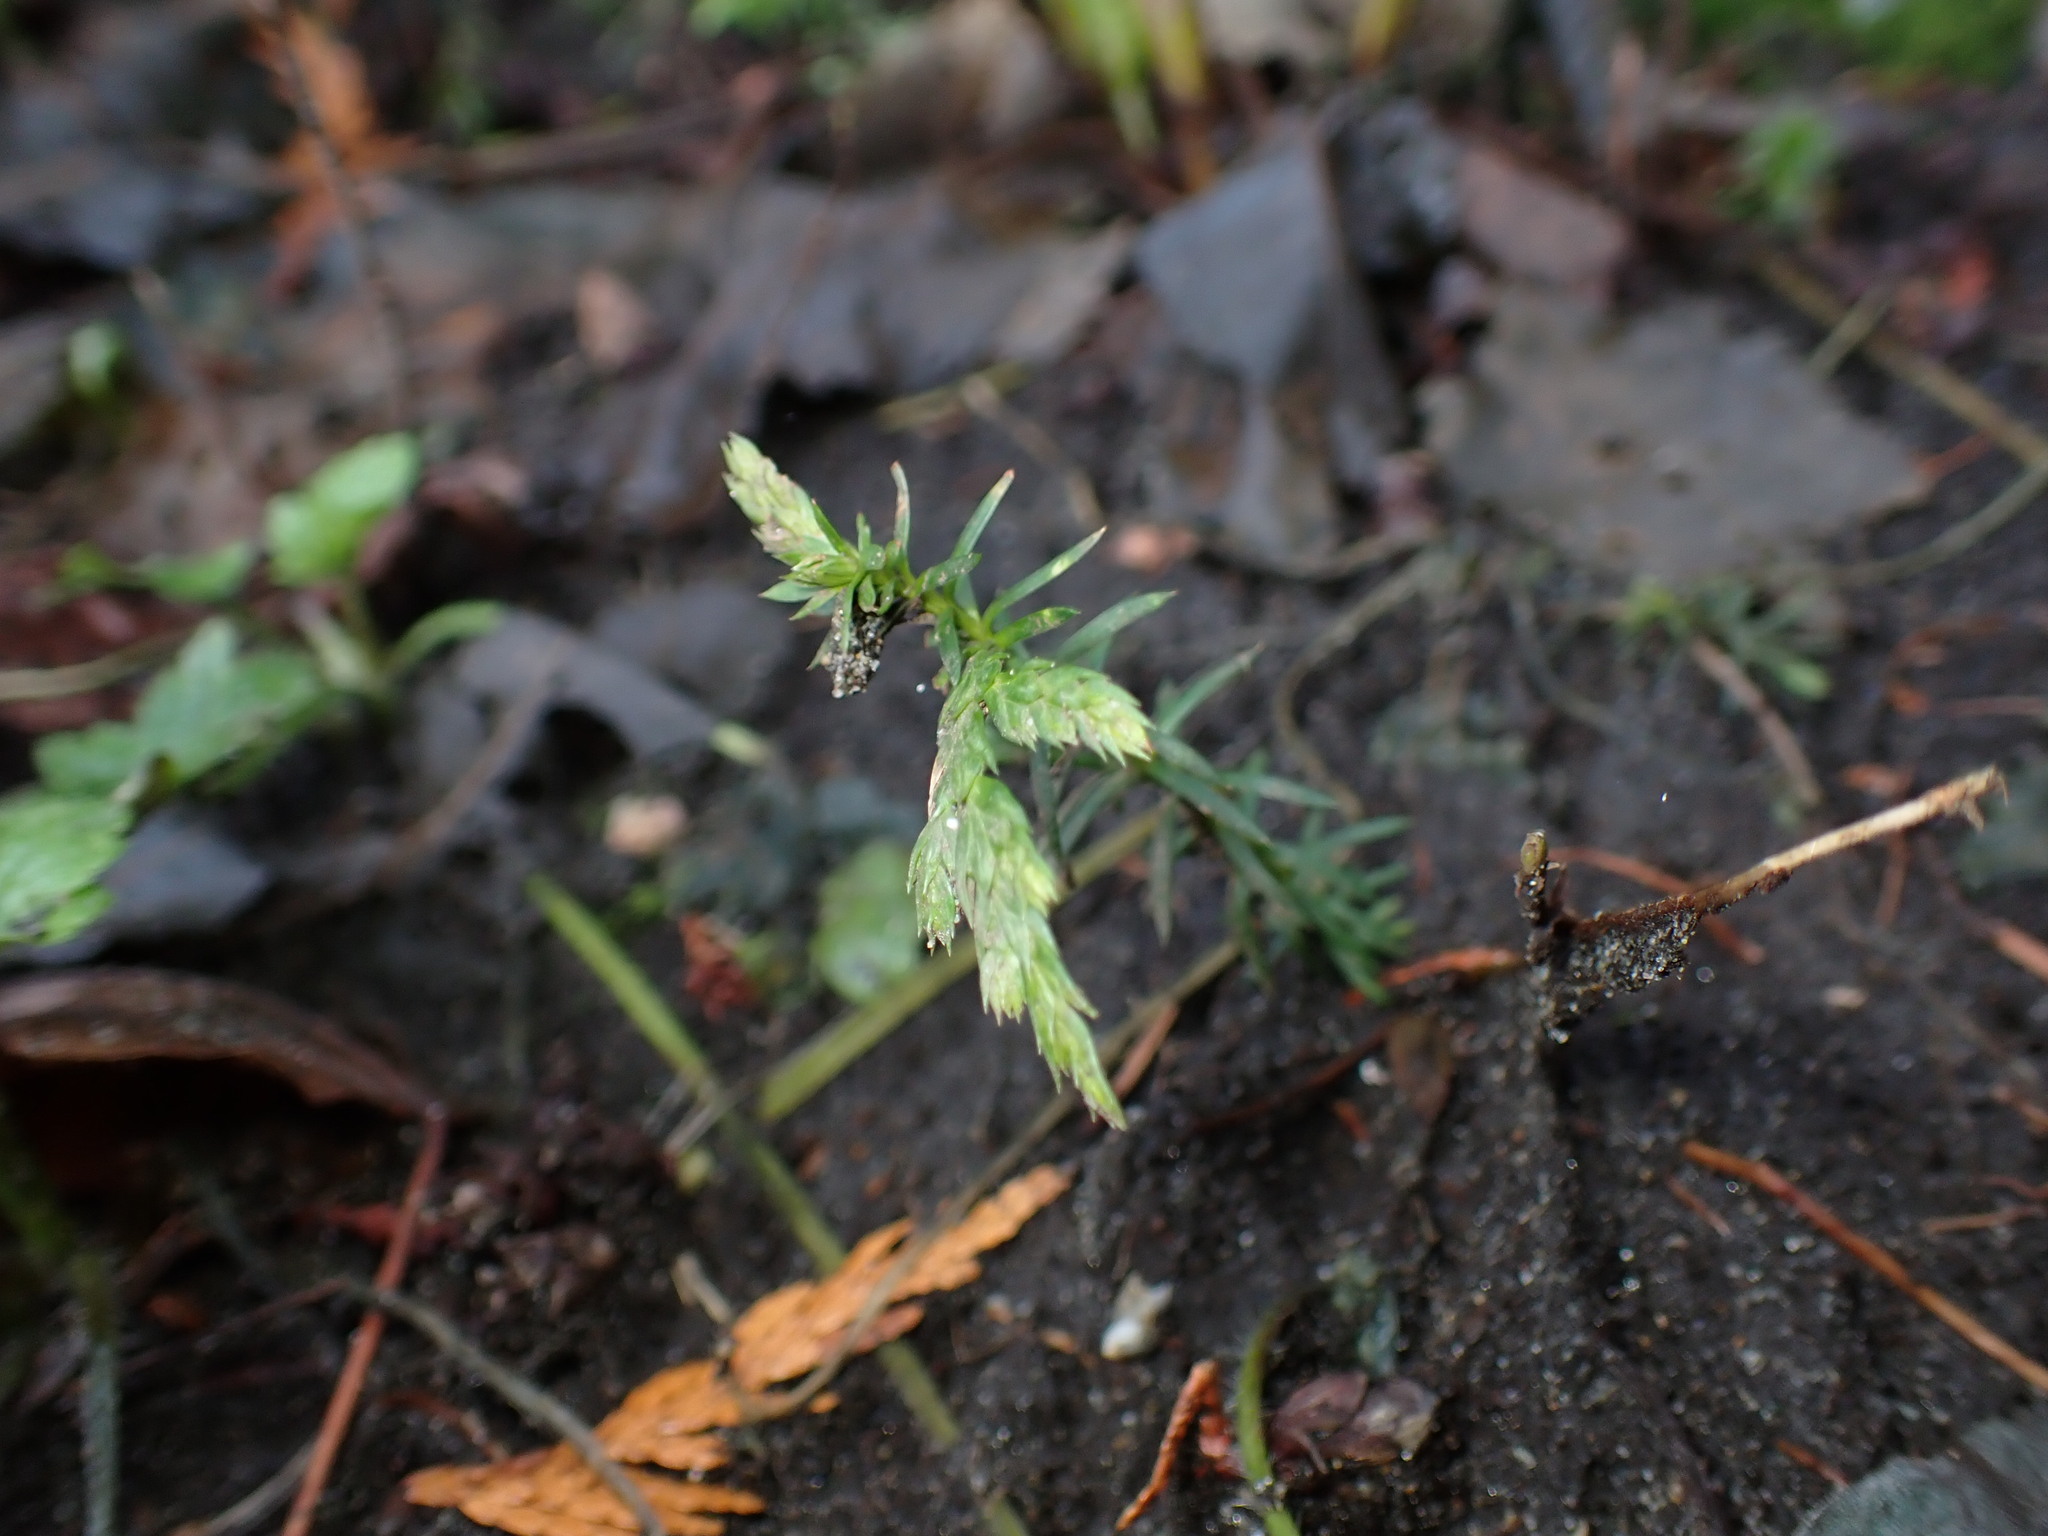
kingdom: Plantae
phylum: Tracheophyta
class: Pinopsida
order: Pinales
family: Cupressaceae
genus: Thuja
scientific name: Thuja plicata
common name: Western red-cedar
